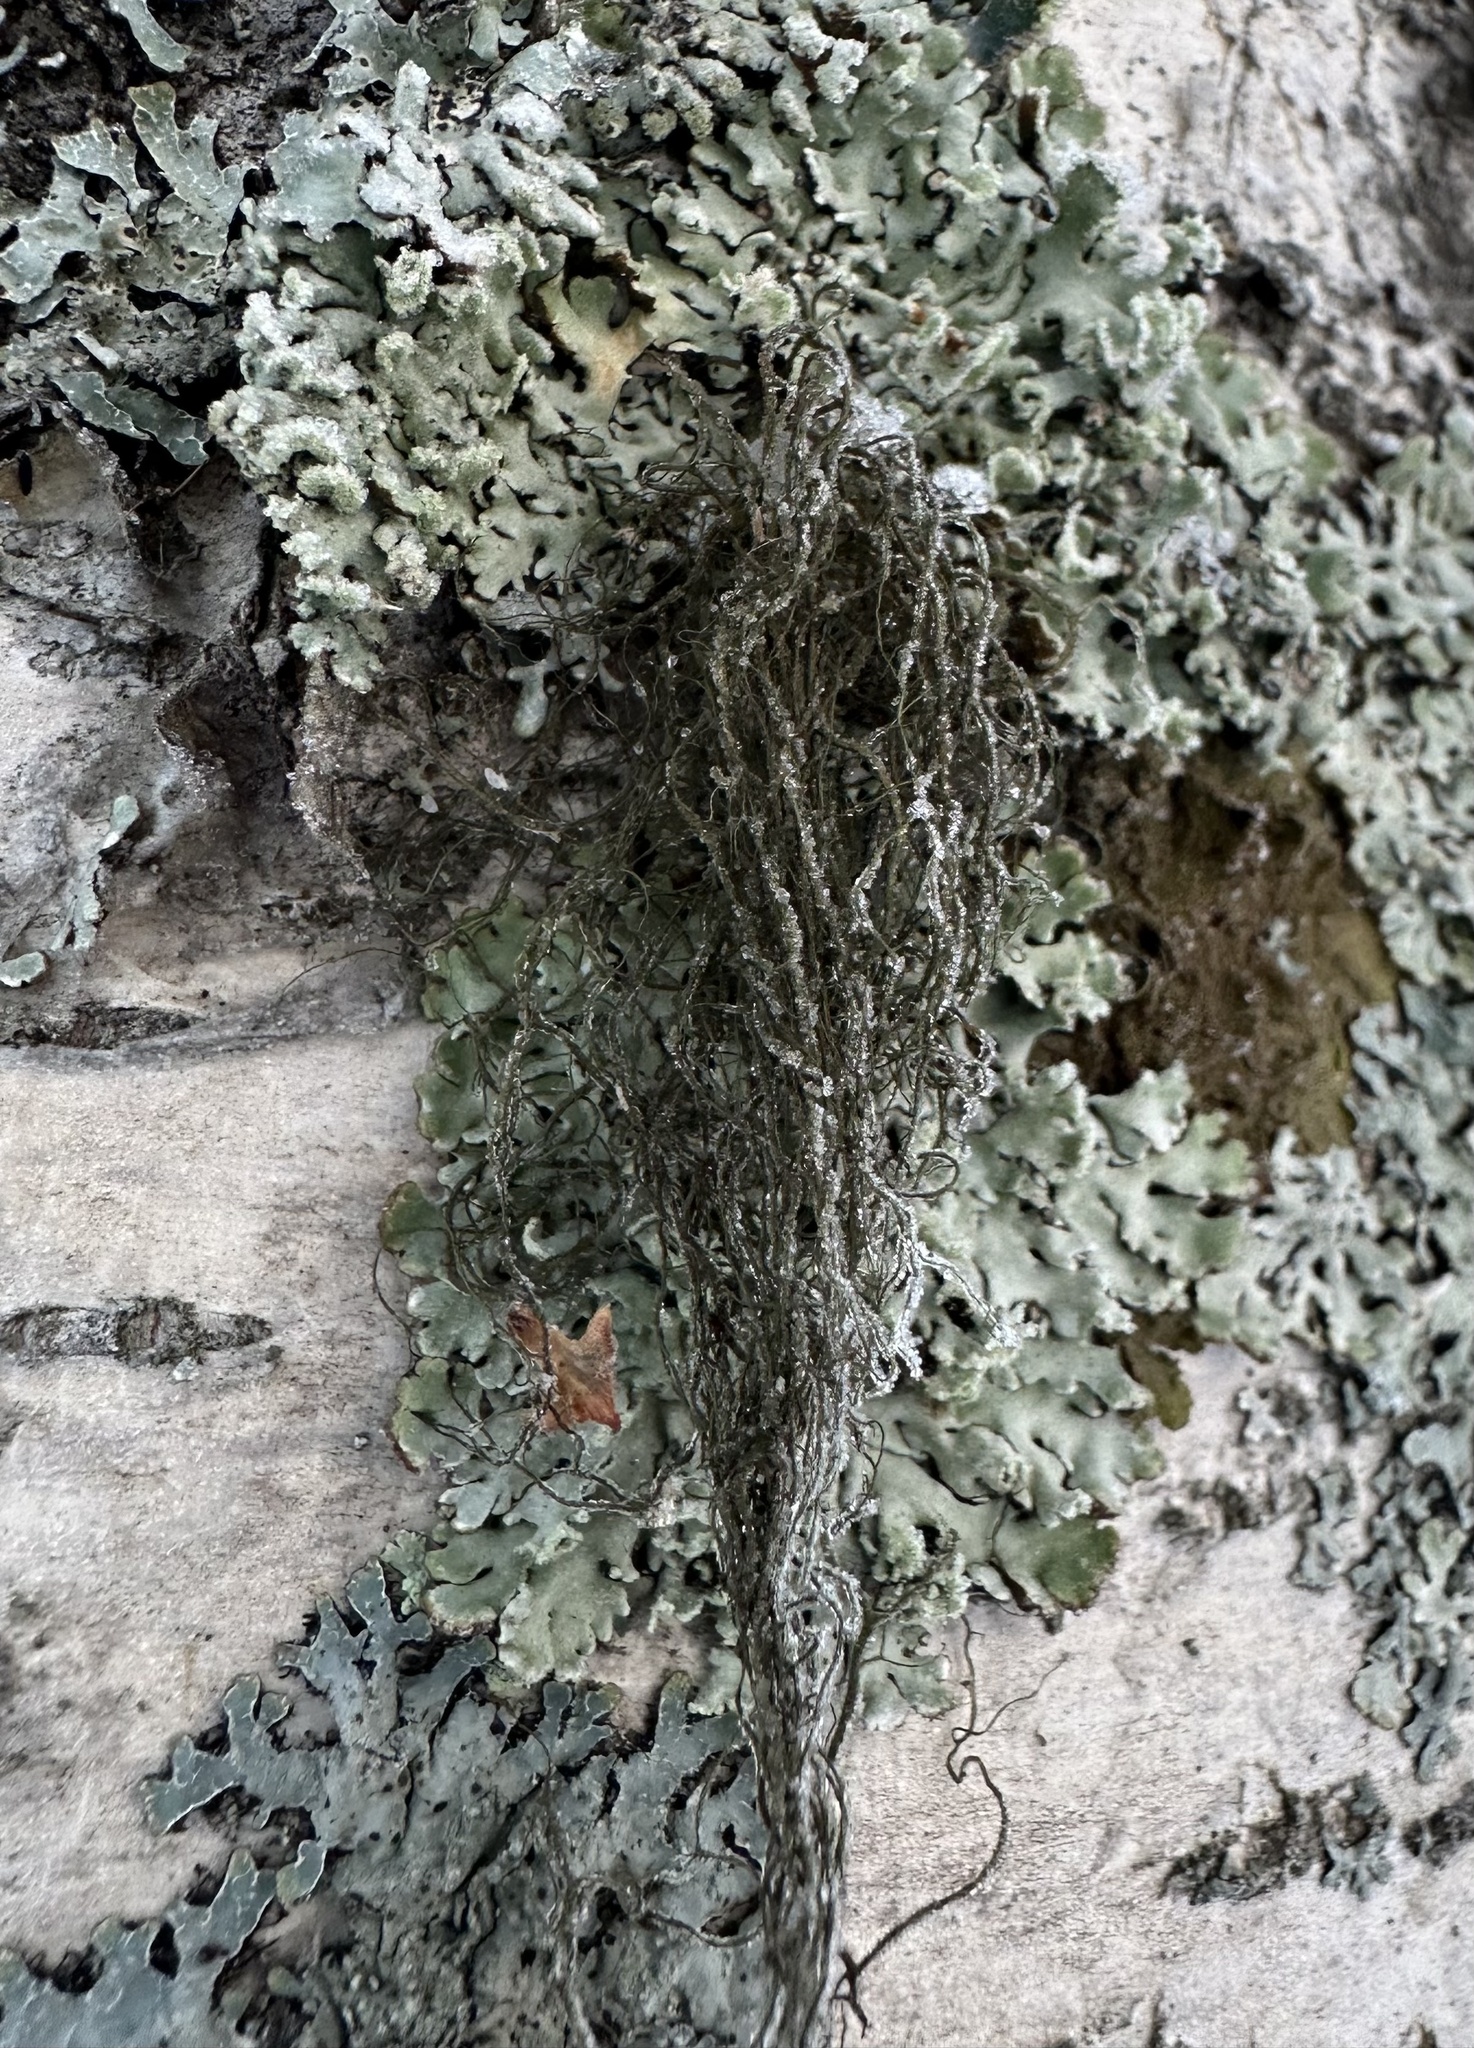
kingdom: Fungi
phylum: Ascomycota
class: Lecanoromycetes
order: Lecanorales
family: Parmeliaceae
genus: Bryoria
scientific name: Bryoria fuscescens
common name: Pale-footed horsehair lichen
